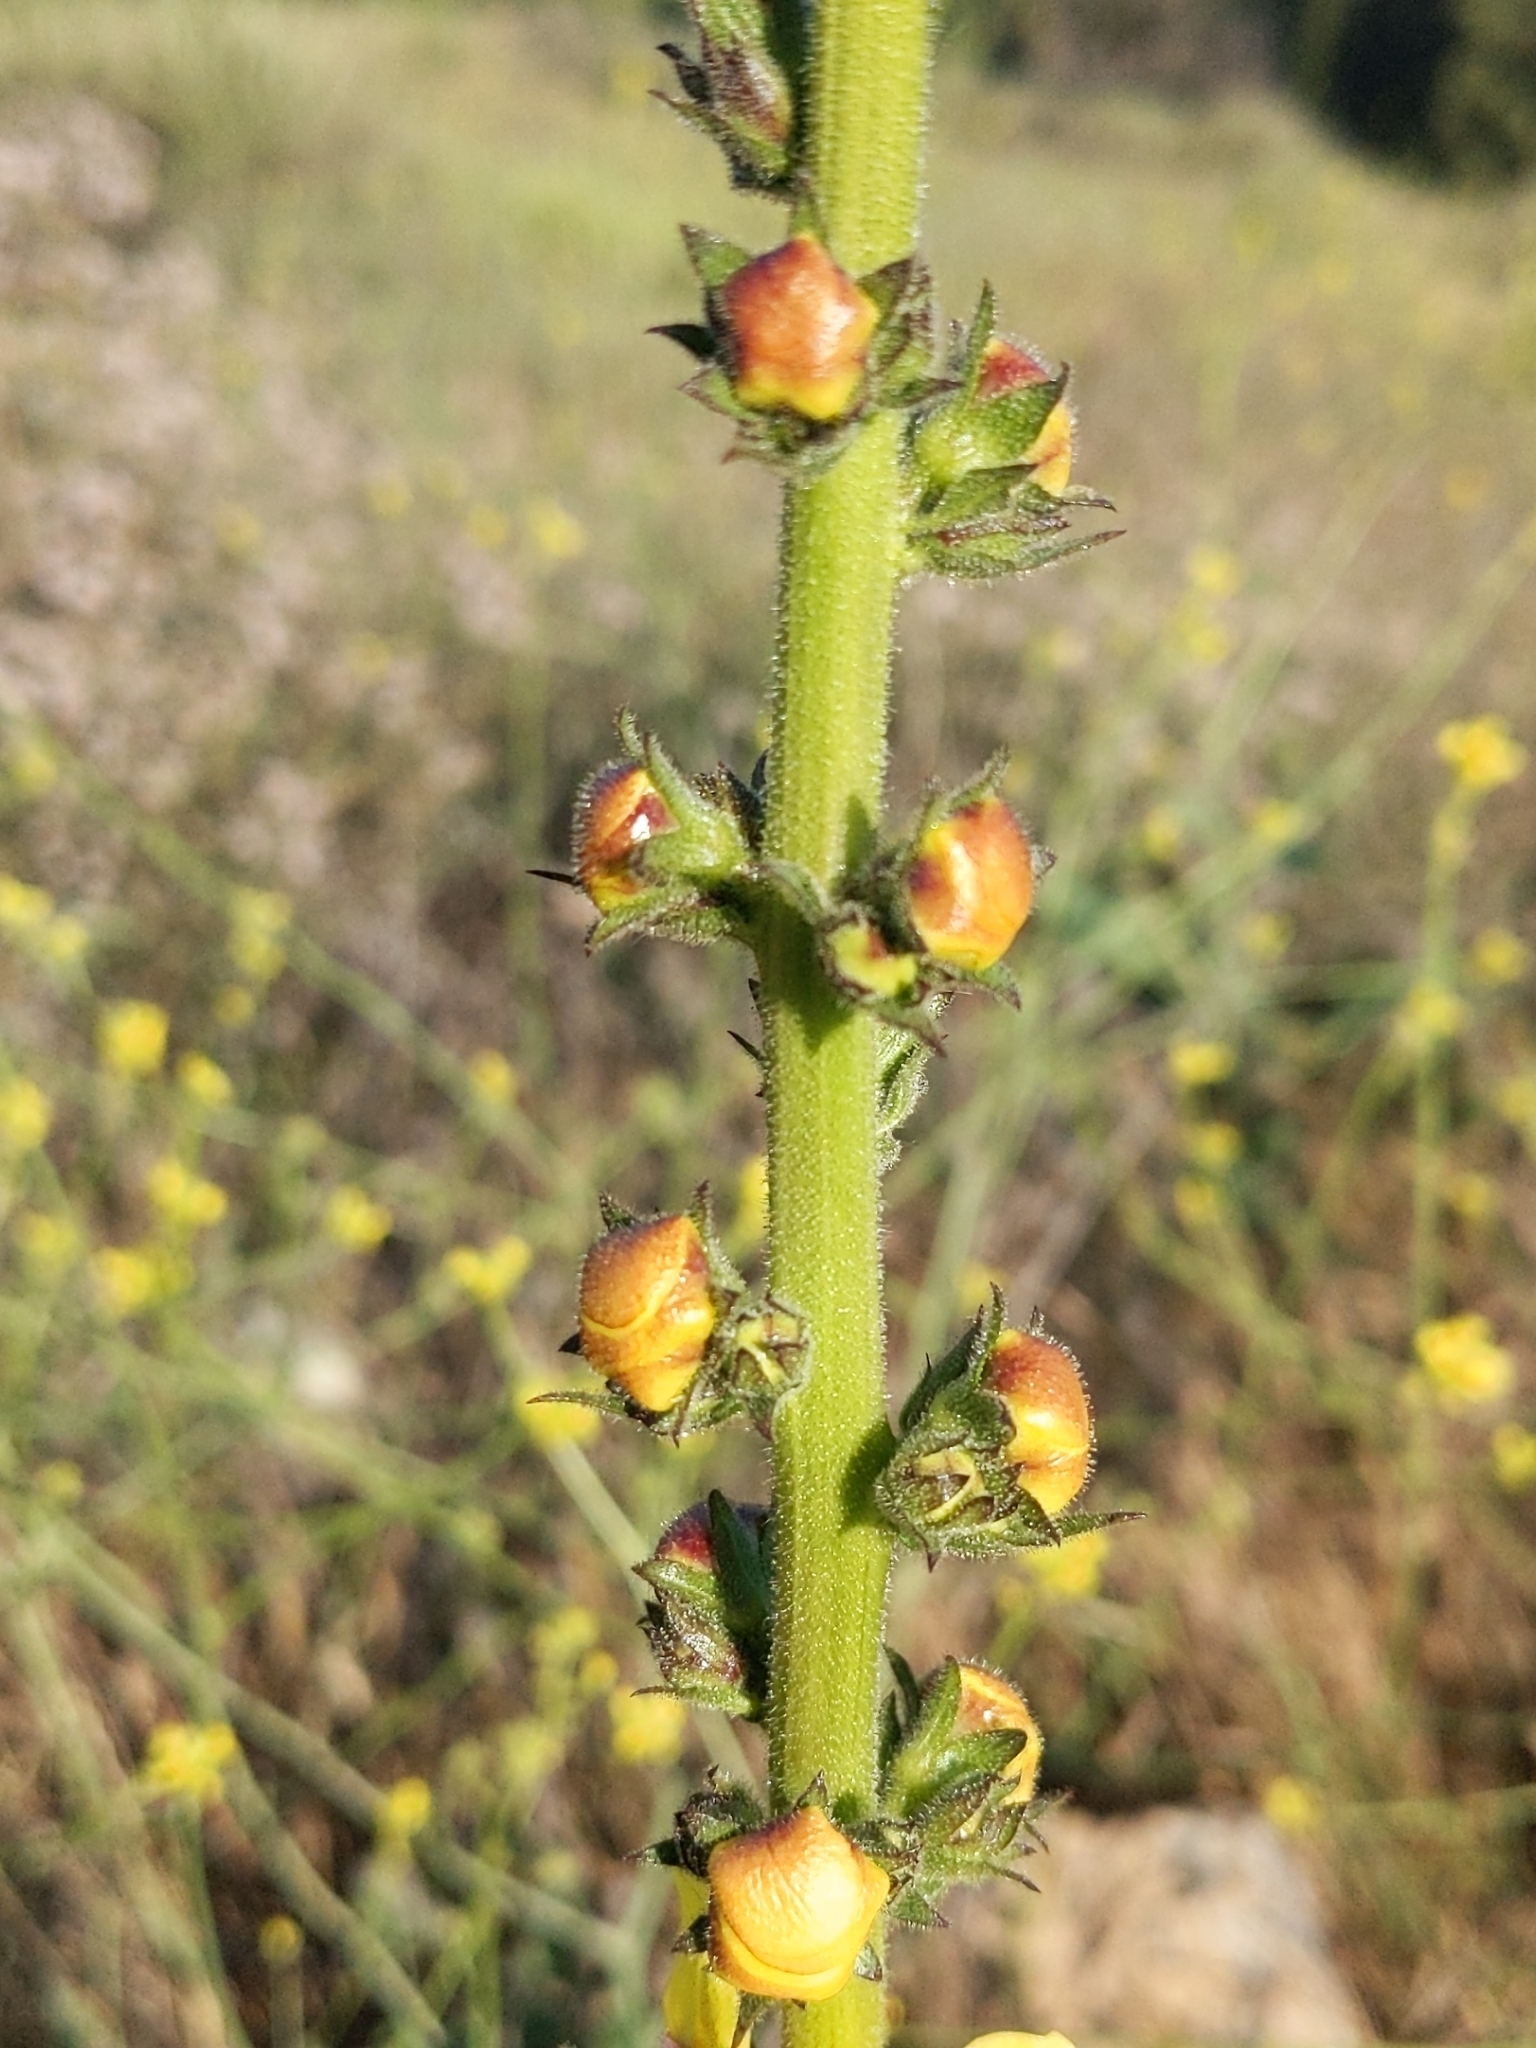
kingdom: Plantae
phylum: Tracheophyta
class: Magnoliopsida
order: Lamiales
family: Scrophulariaceae
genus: Verbascum
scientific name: Verbascum virgatum
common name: Twiggy mullein
